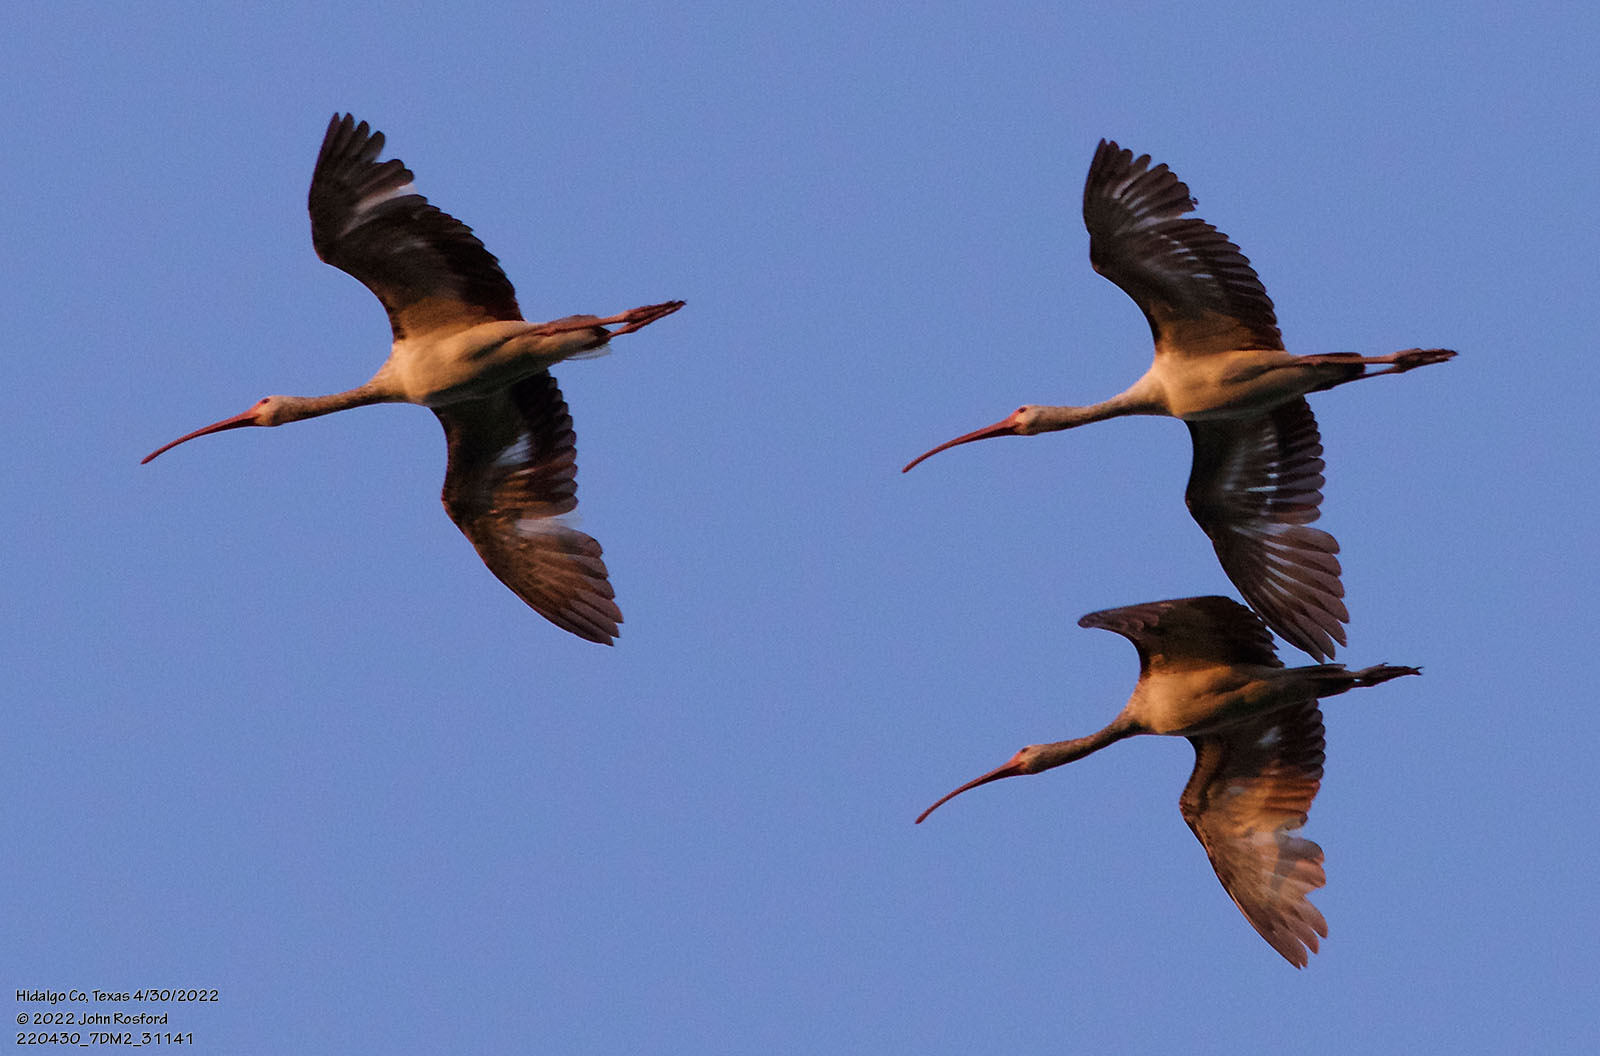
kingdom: Animalia
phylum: Chordata
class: Aves
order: Pelecaniformes
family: Threskiornithidae
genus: Eudocimus
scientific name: Eudocimus albus
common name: White ibis
